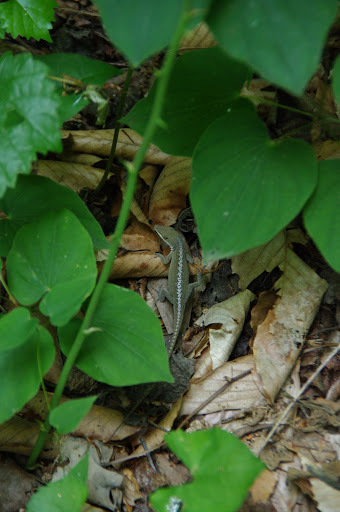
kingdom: Animalia
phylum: Chordata
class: Squamata
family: Dactyloidae
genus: Anolis
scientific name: Anolis carolinensis
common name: Green anole
